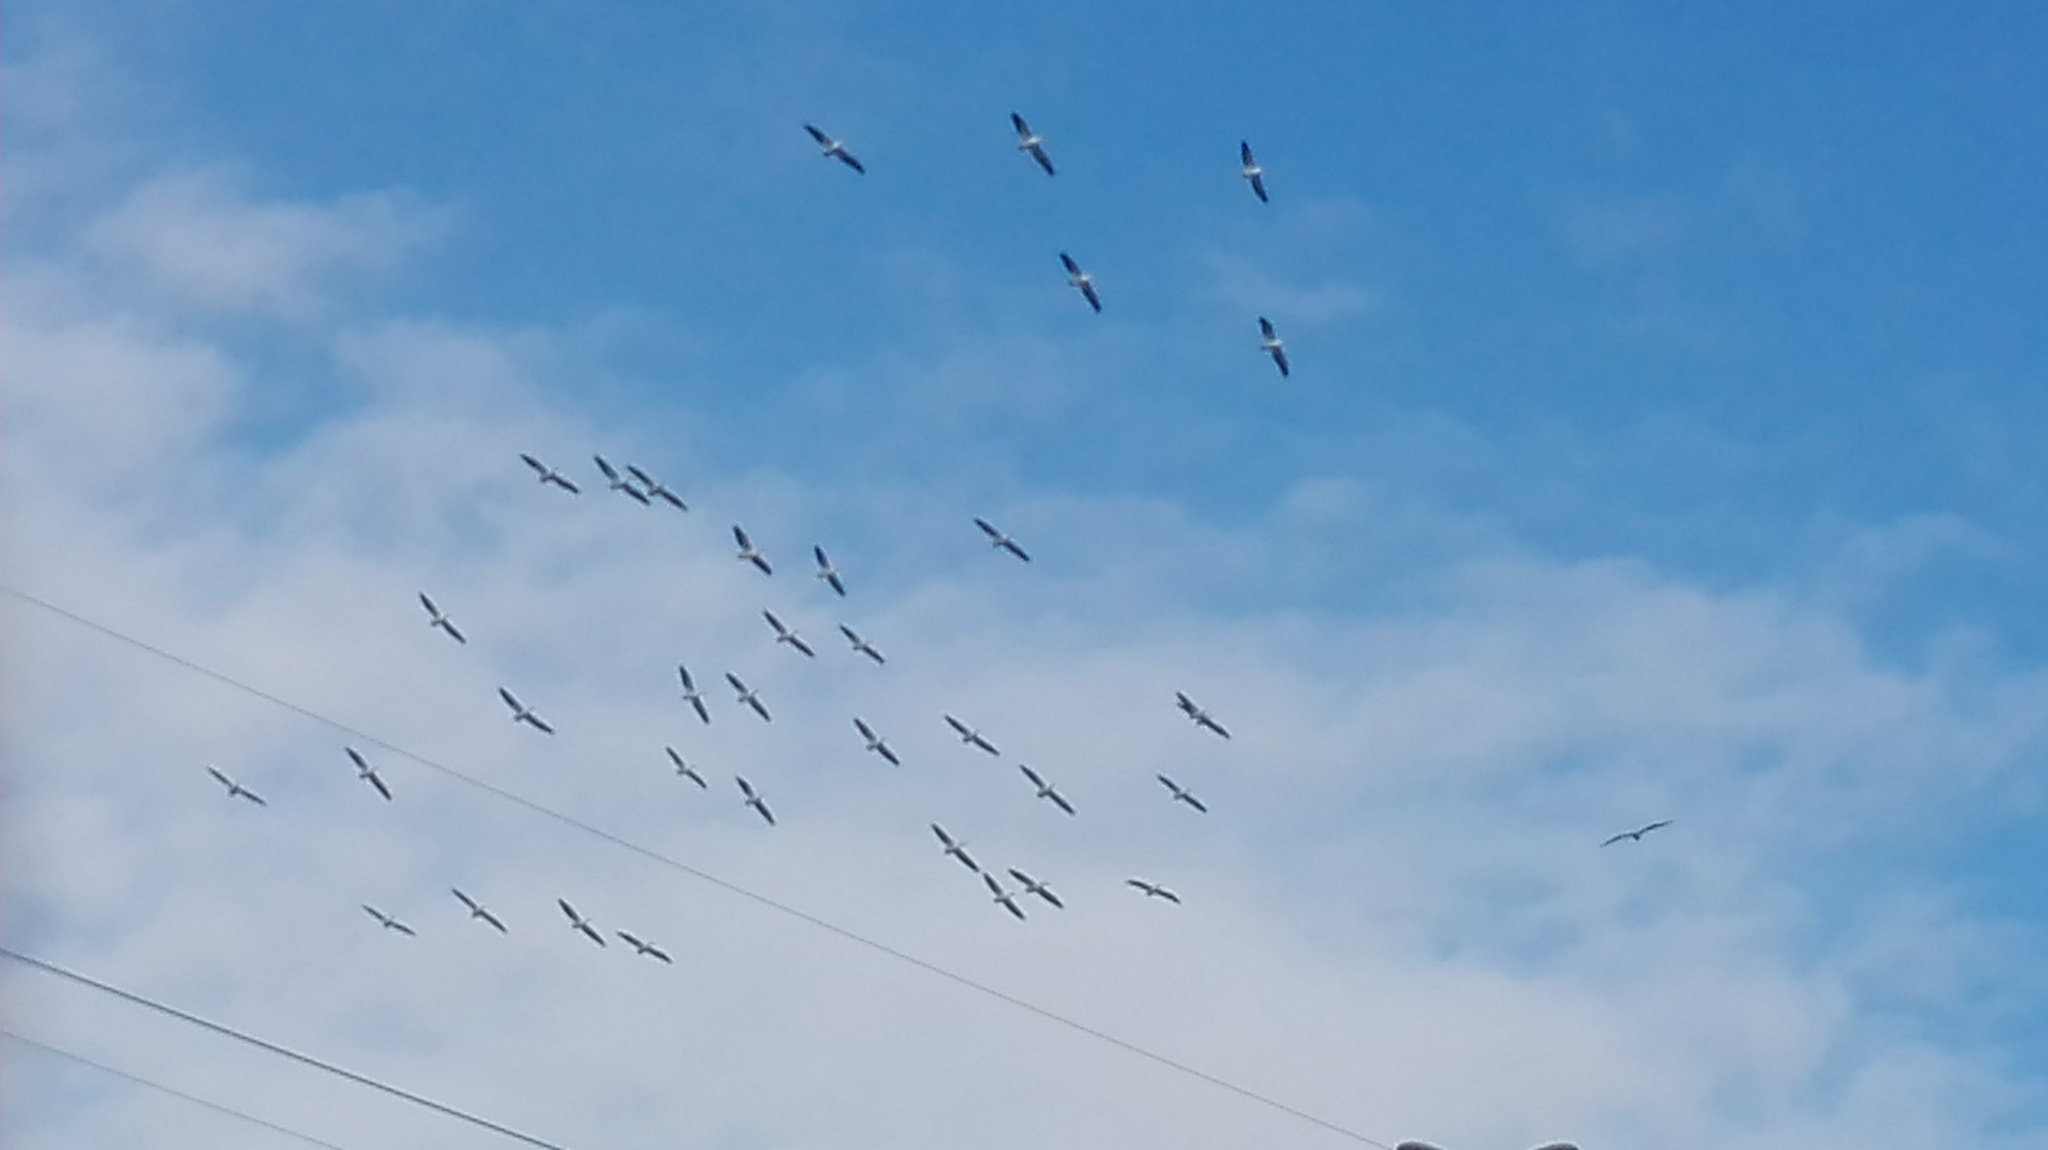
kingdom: Animalia
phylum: Chordata
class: Aves
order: Pelecaniformes
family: Pelecanidae
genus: Pelecanus
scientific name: Pelecanus erythrorhynchos
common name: American white pelican
